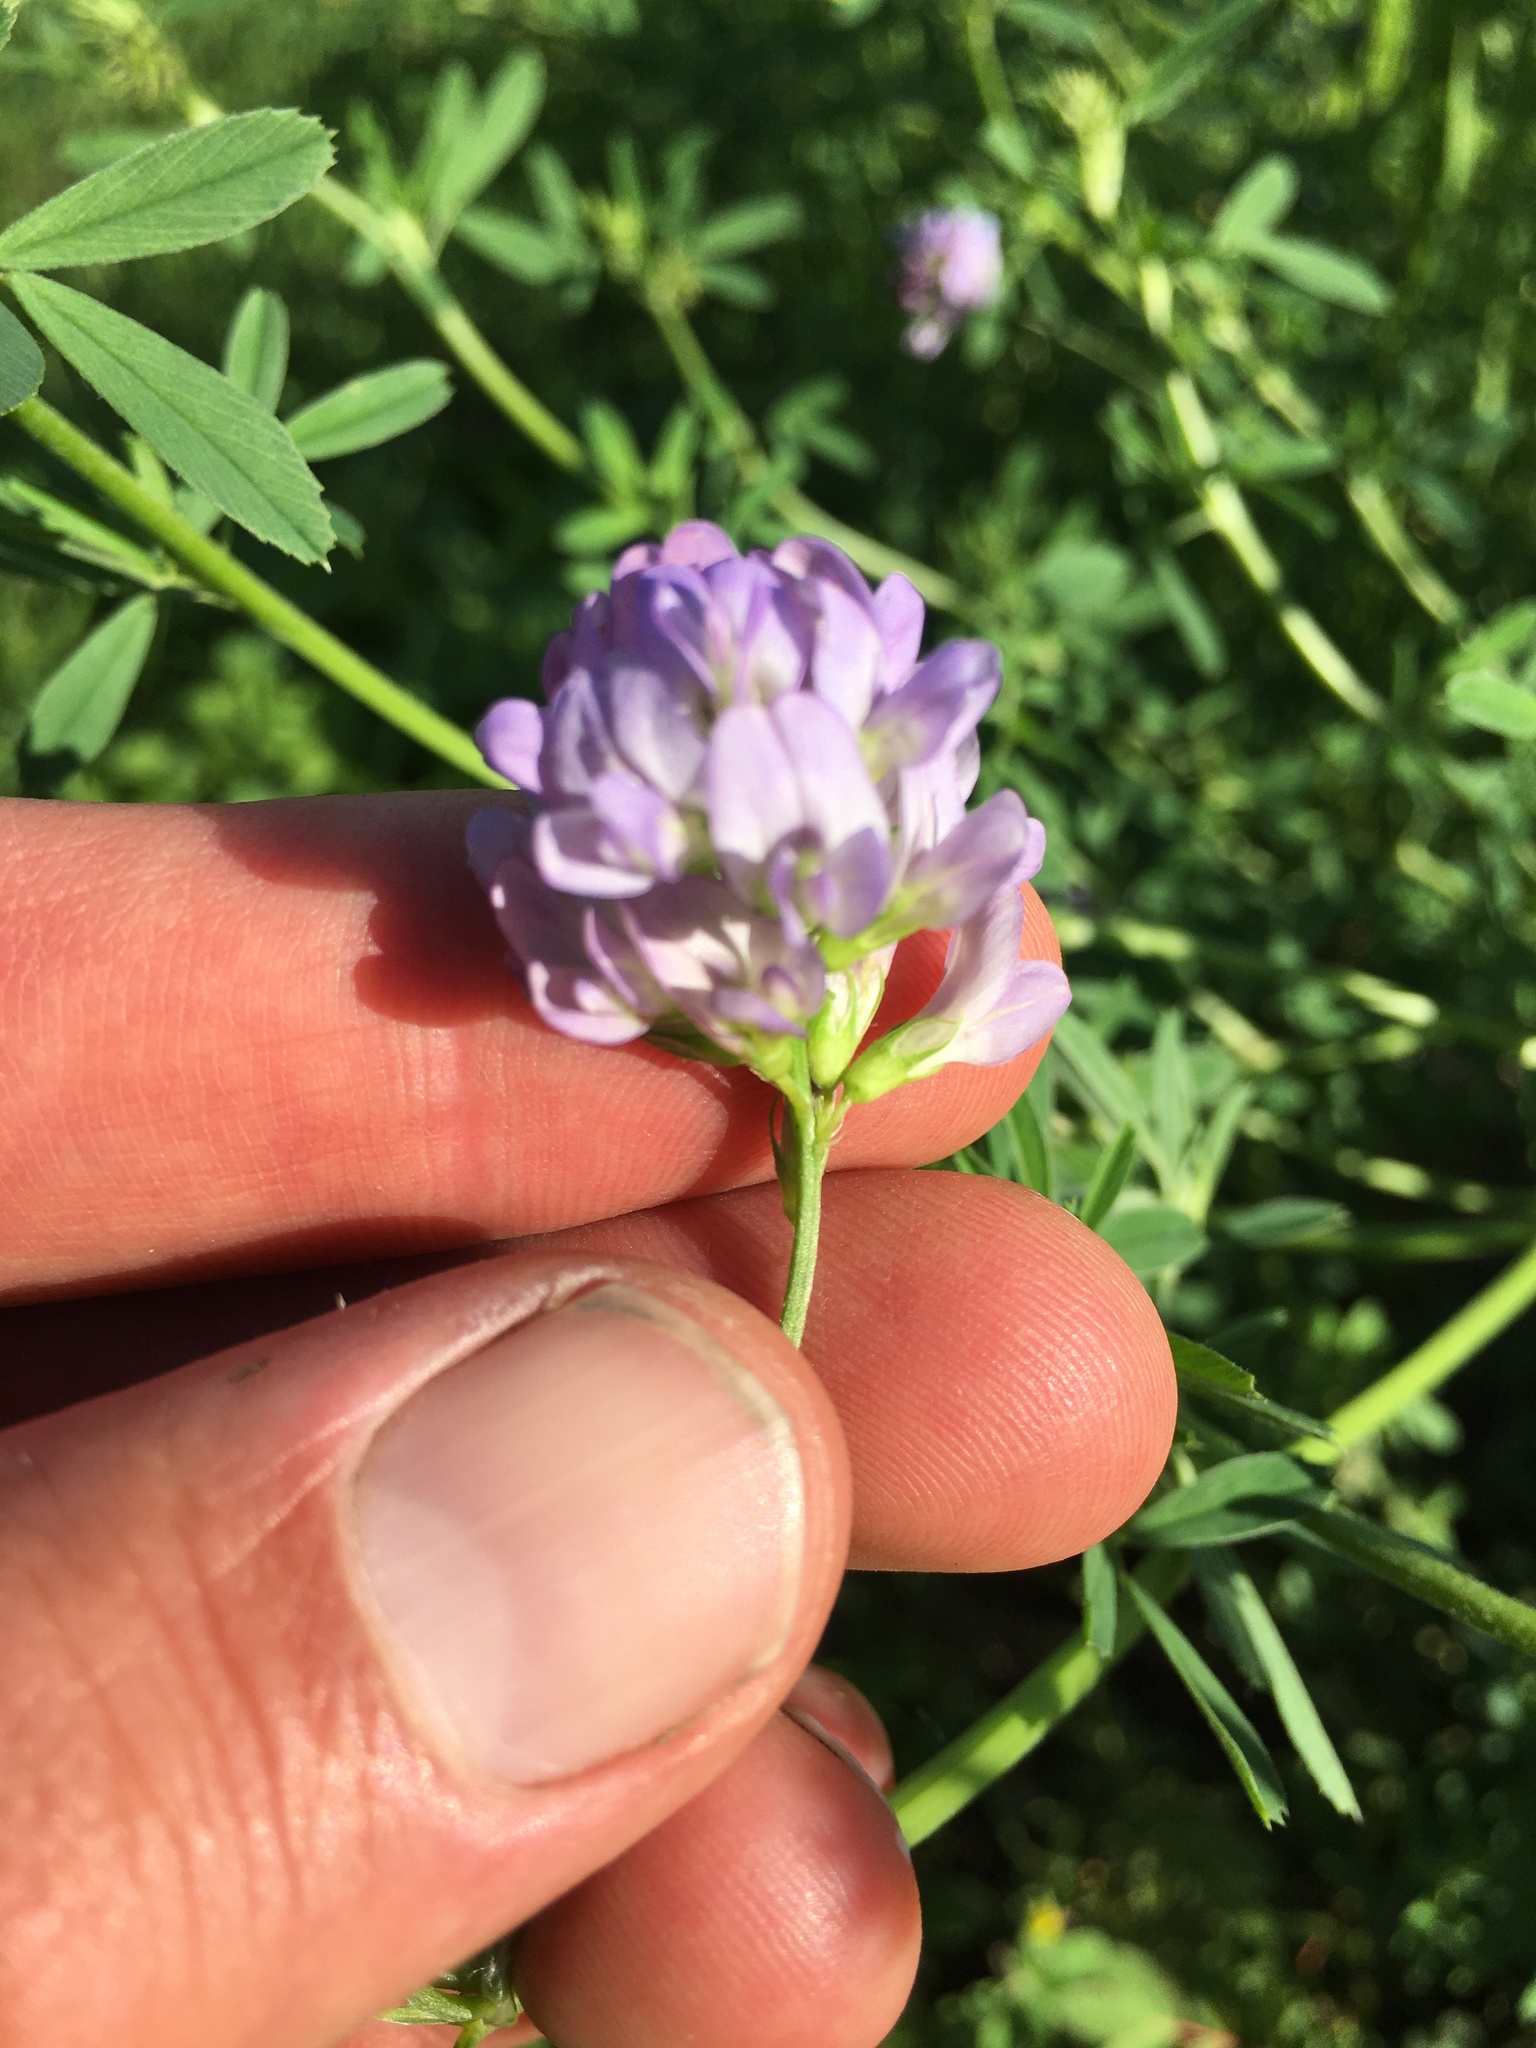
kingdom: Plantae
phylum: Tracheophyta
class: Magnoliopsida
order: Fabales
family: Fabaceae
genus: Medicago
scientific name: Medicago sativa
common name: Alfalfa
